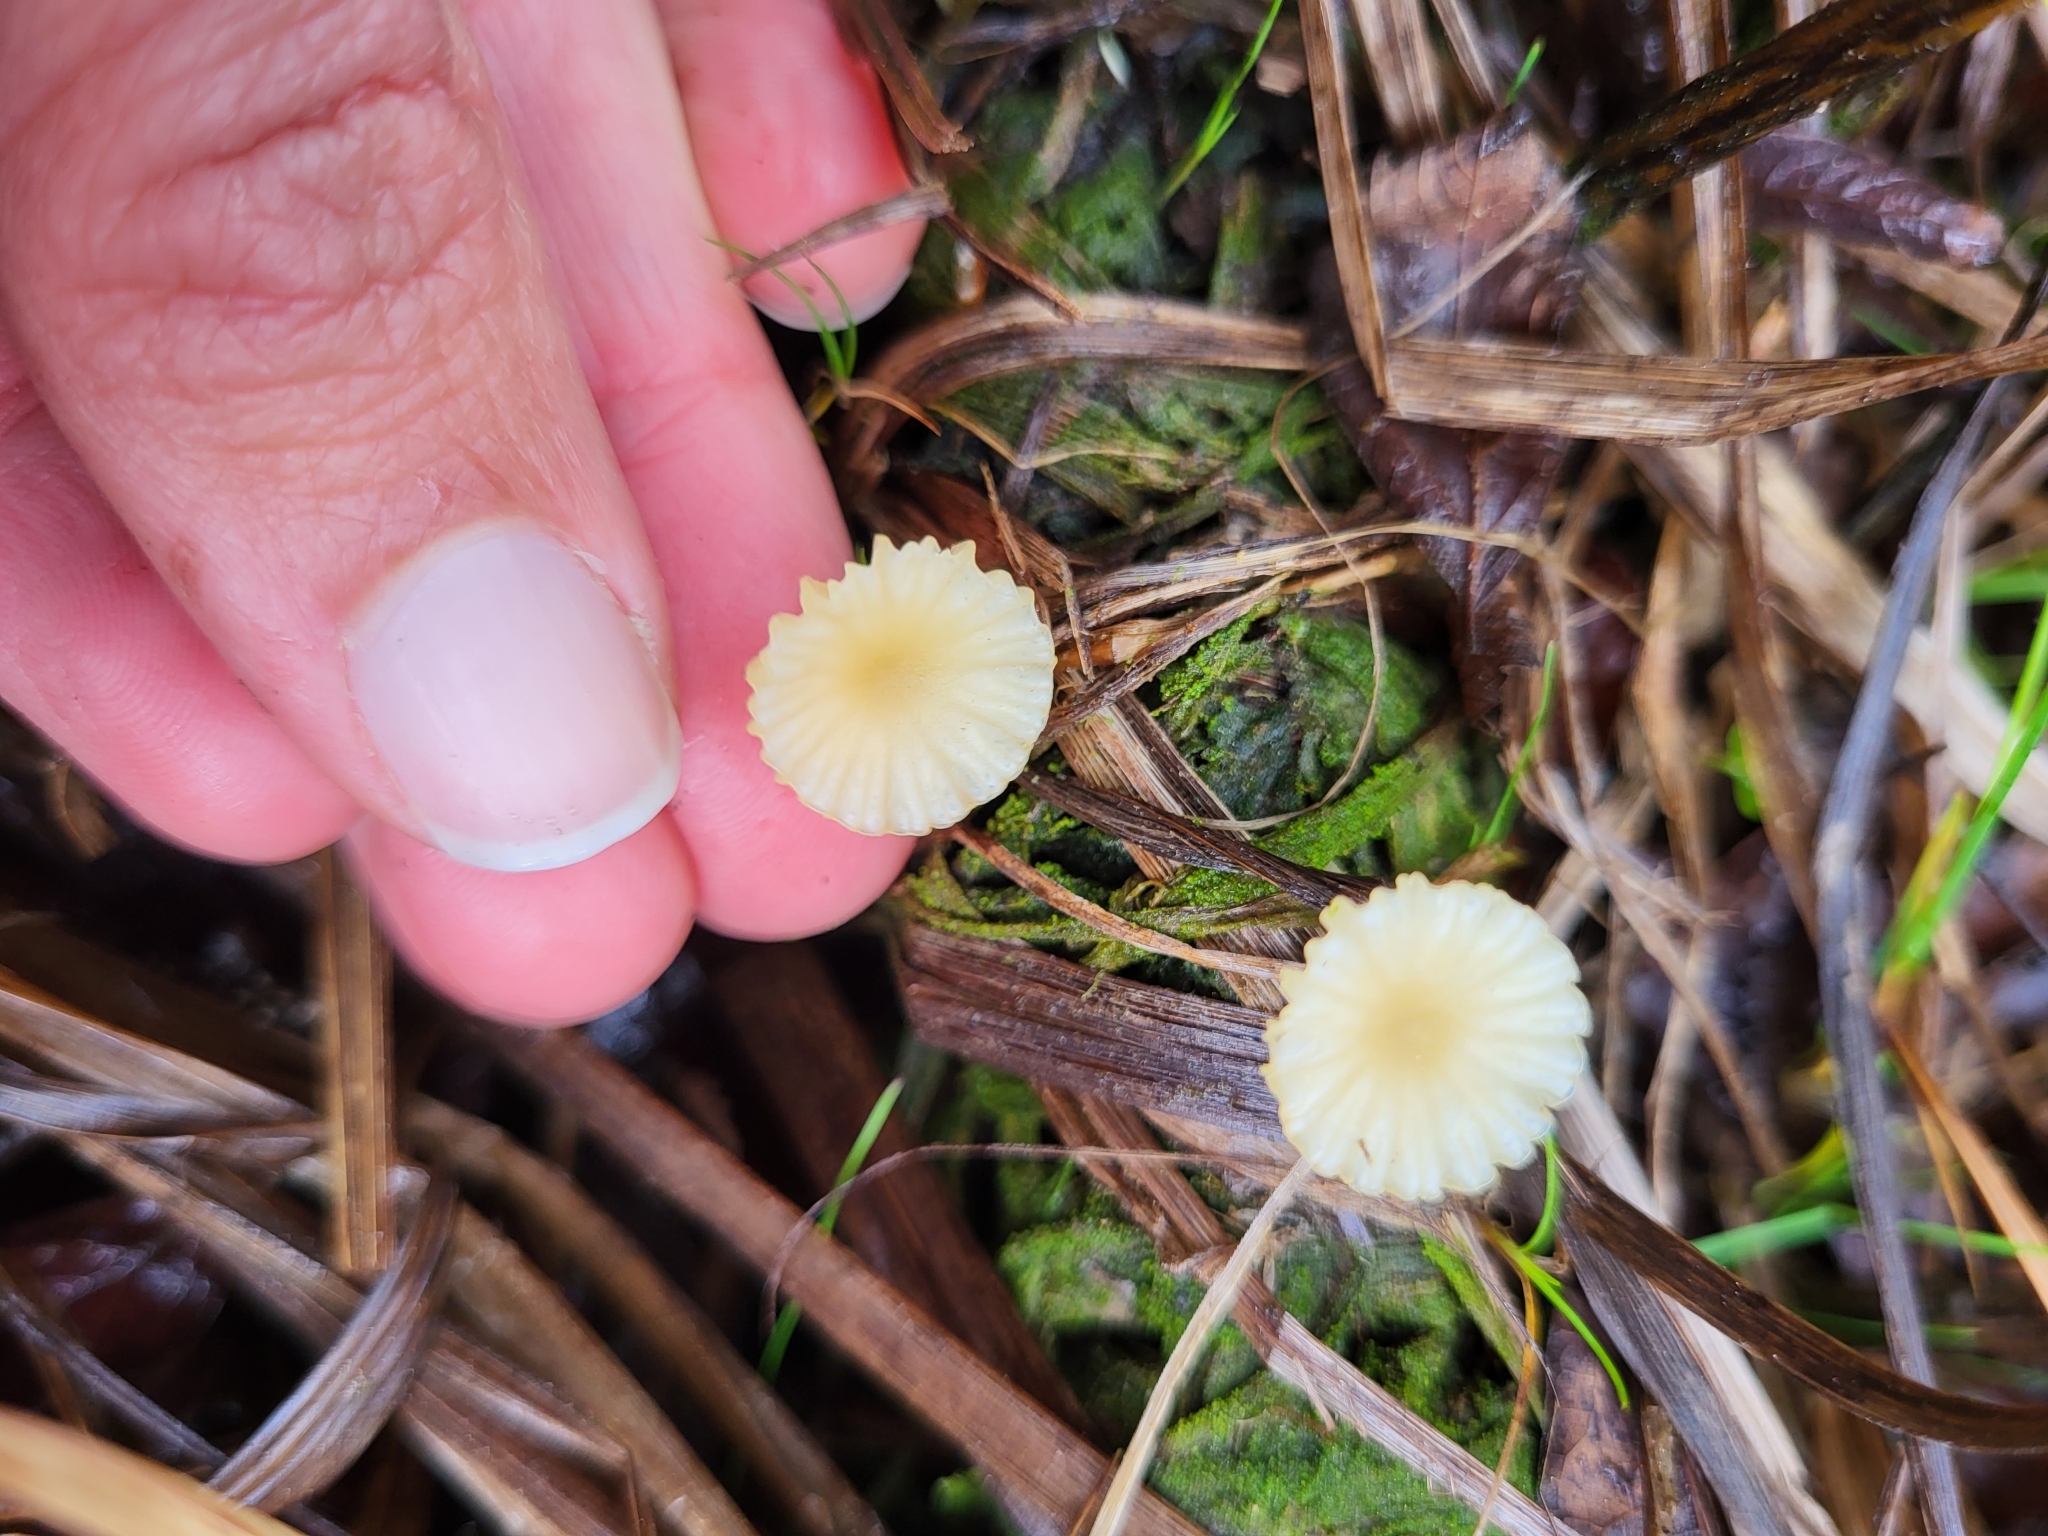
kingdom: Fungi
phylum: Basidiomycota
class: Agaricomycetes
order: Agaricales
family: Hygrophoraceae
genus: Lichenomphalia
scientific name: Lichenomphalia
